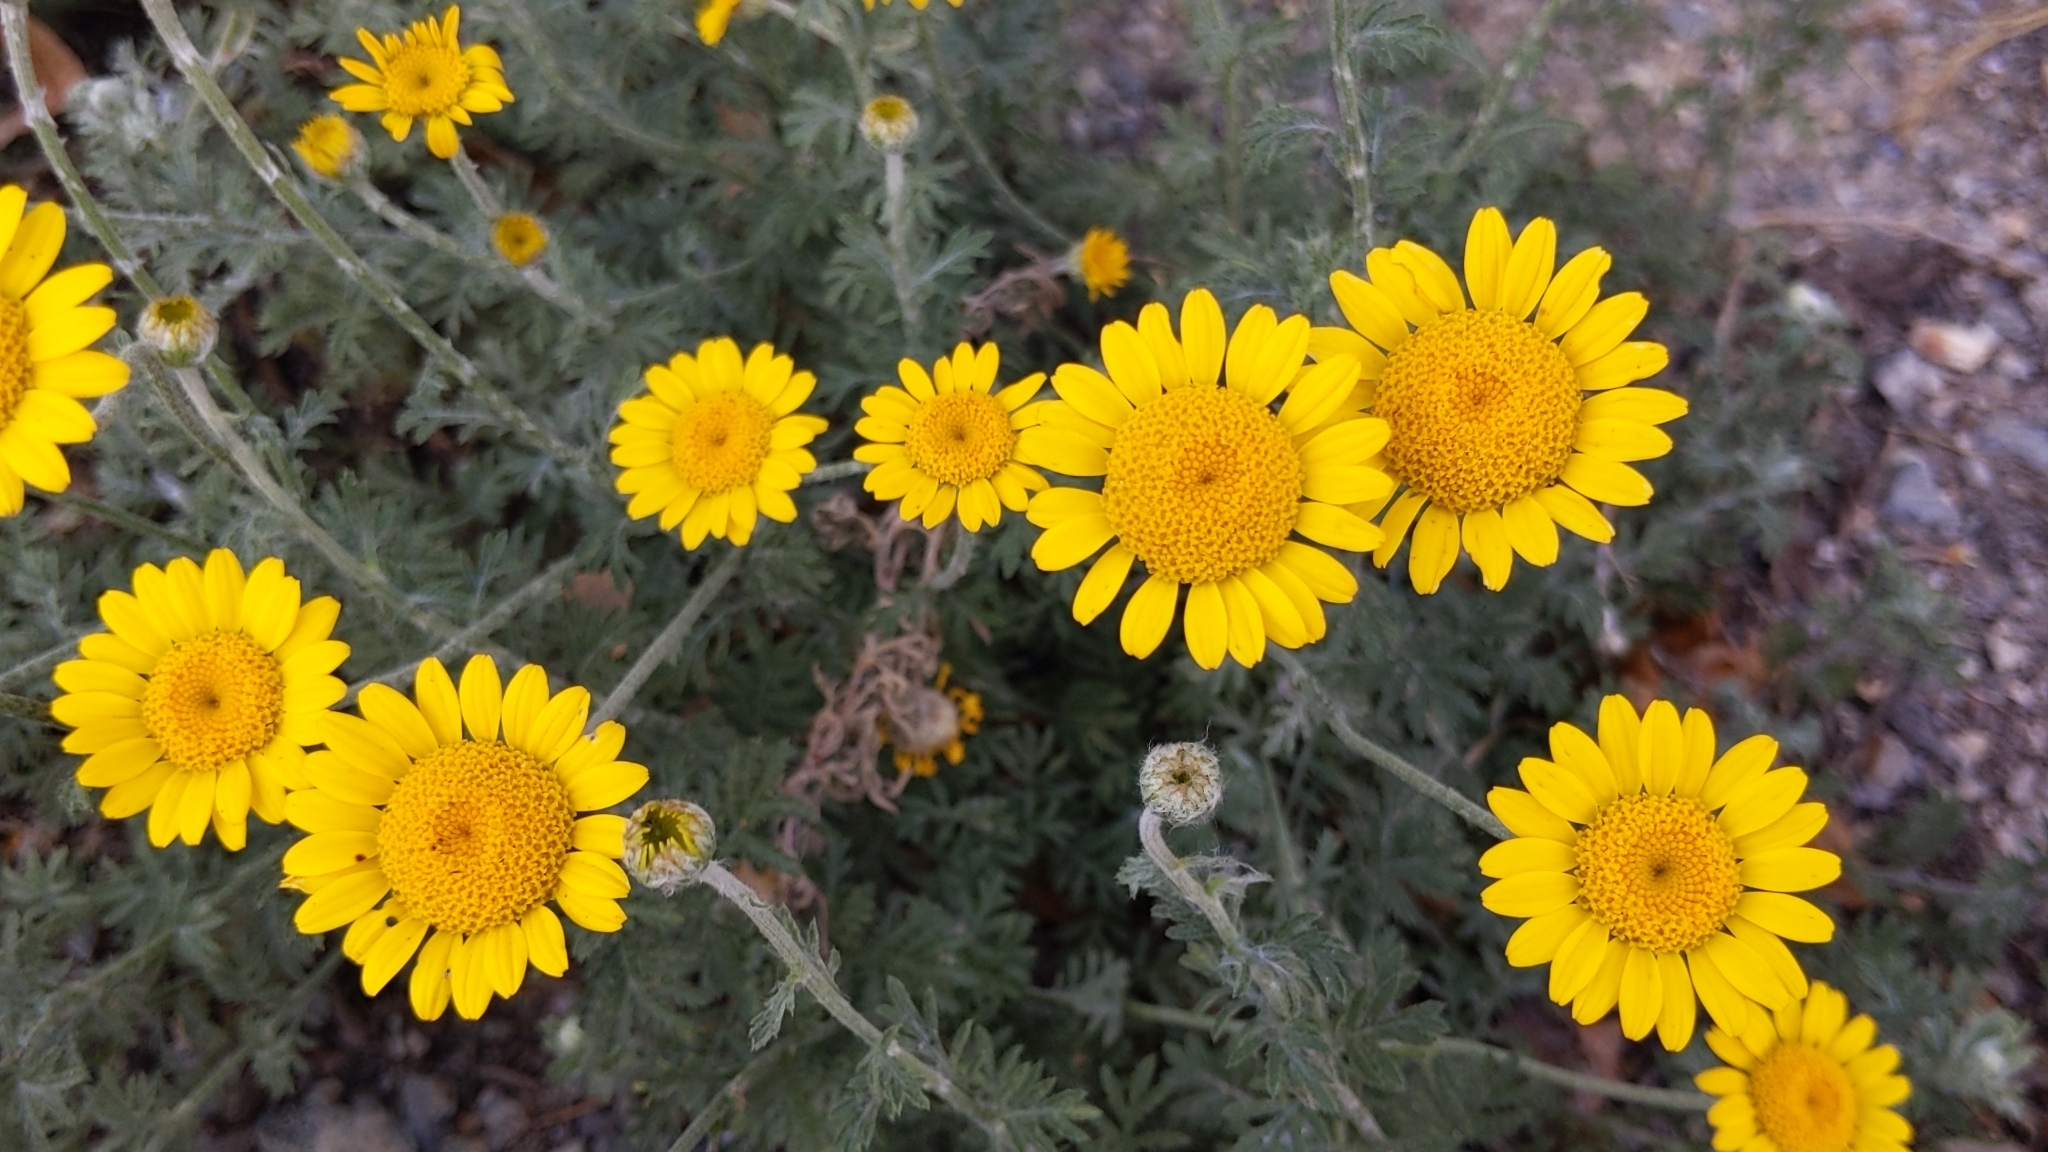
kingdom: Plantae
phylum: Tracheophyta
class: Magnoliopsida
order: Asterales
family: Asteraceae
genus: Cota
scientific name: Cota tinctoria
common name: Golden chamomile
